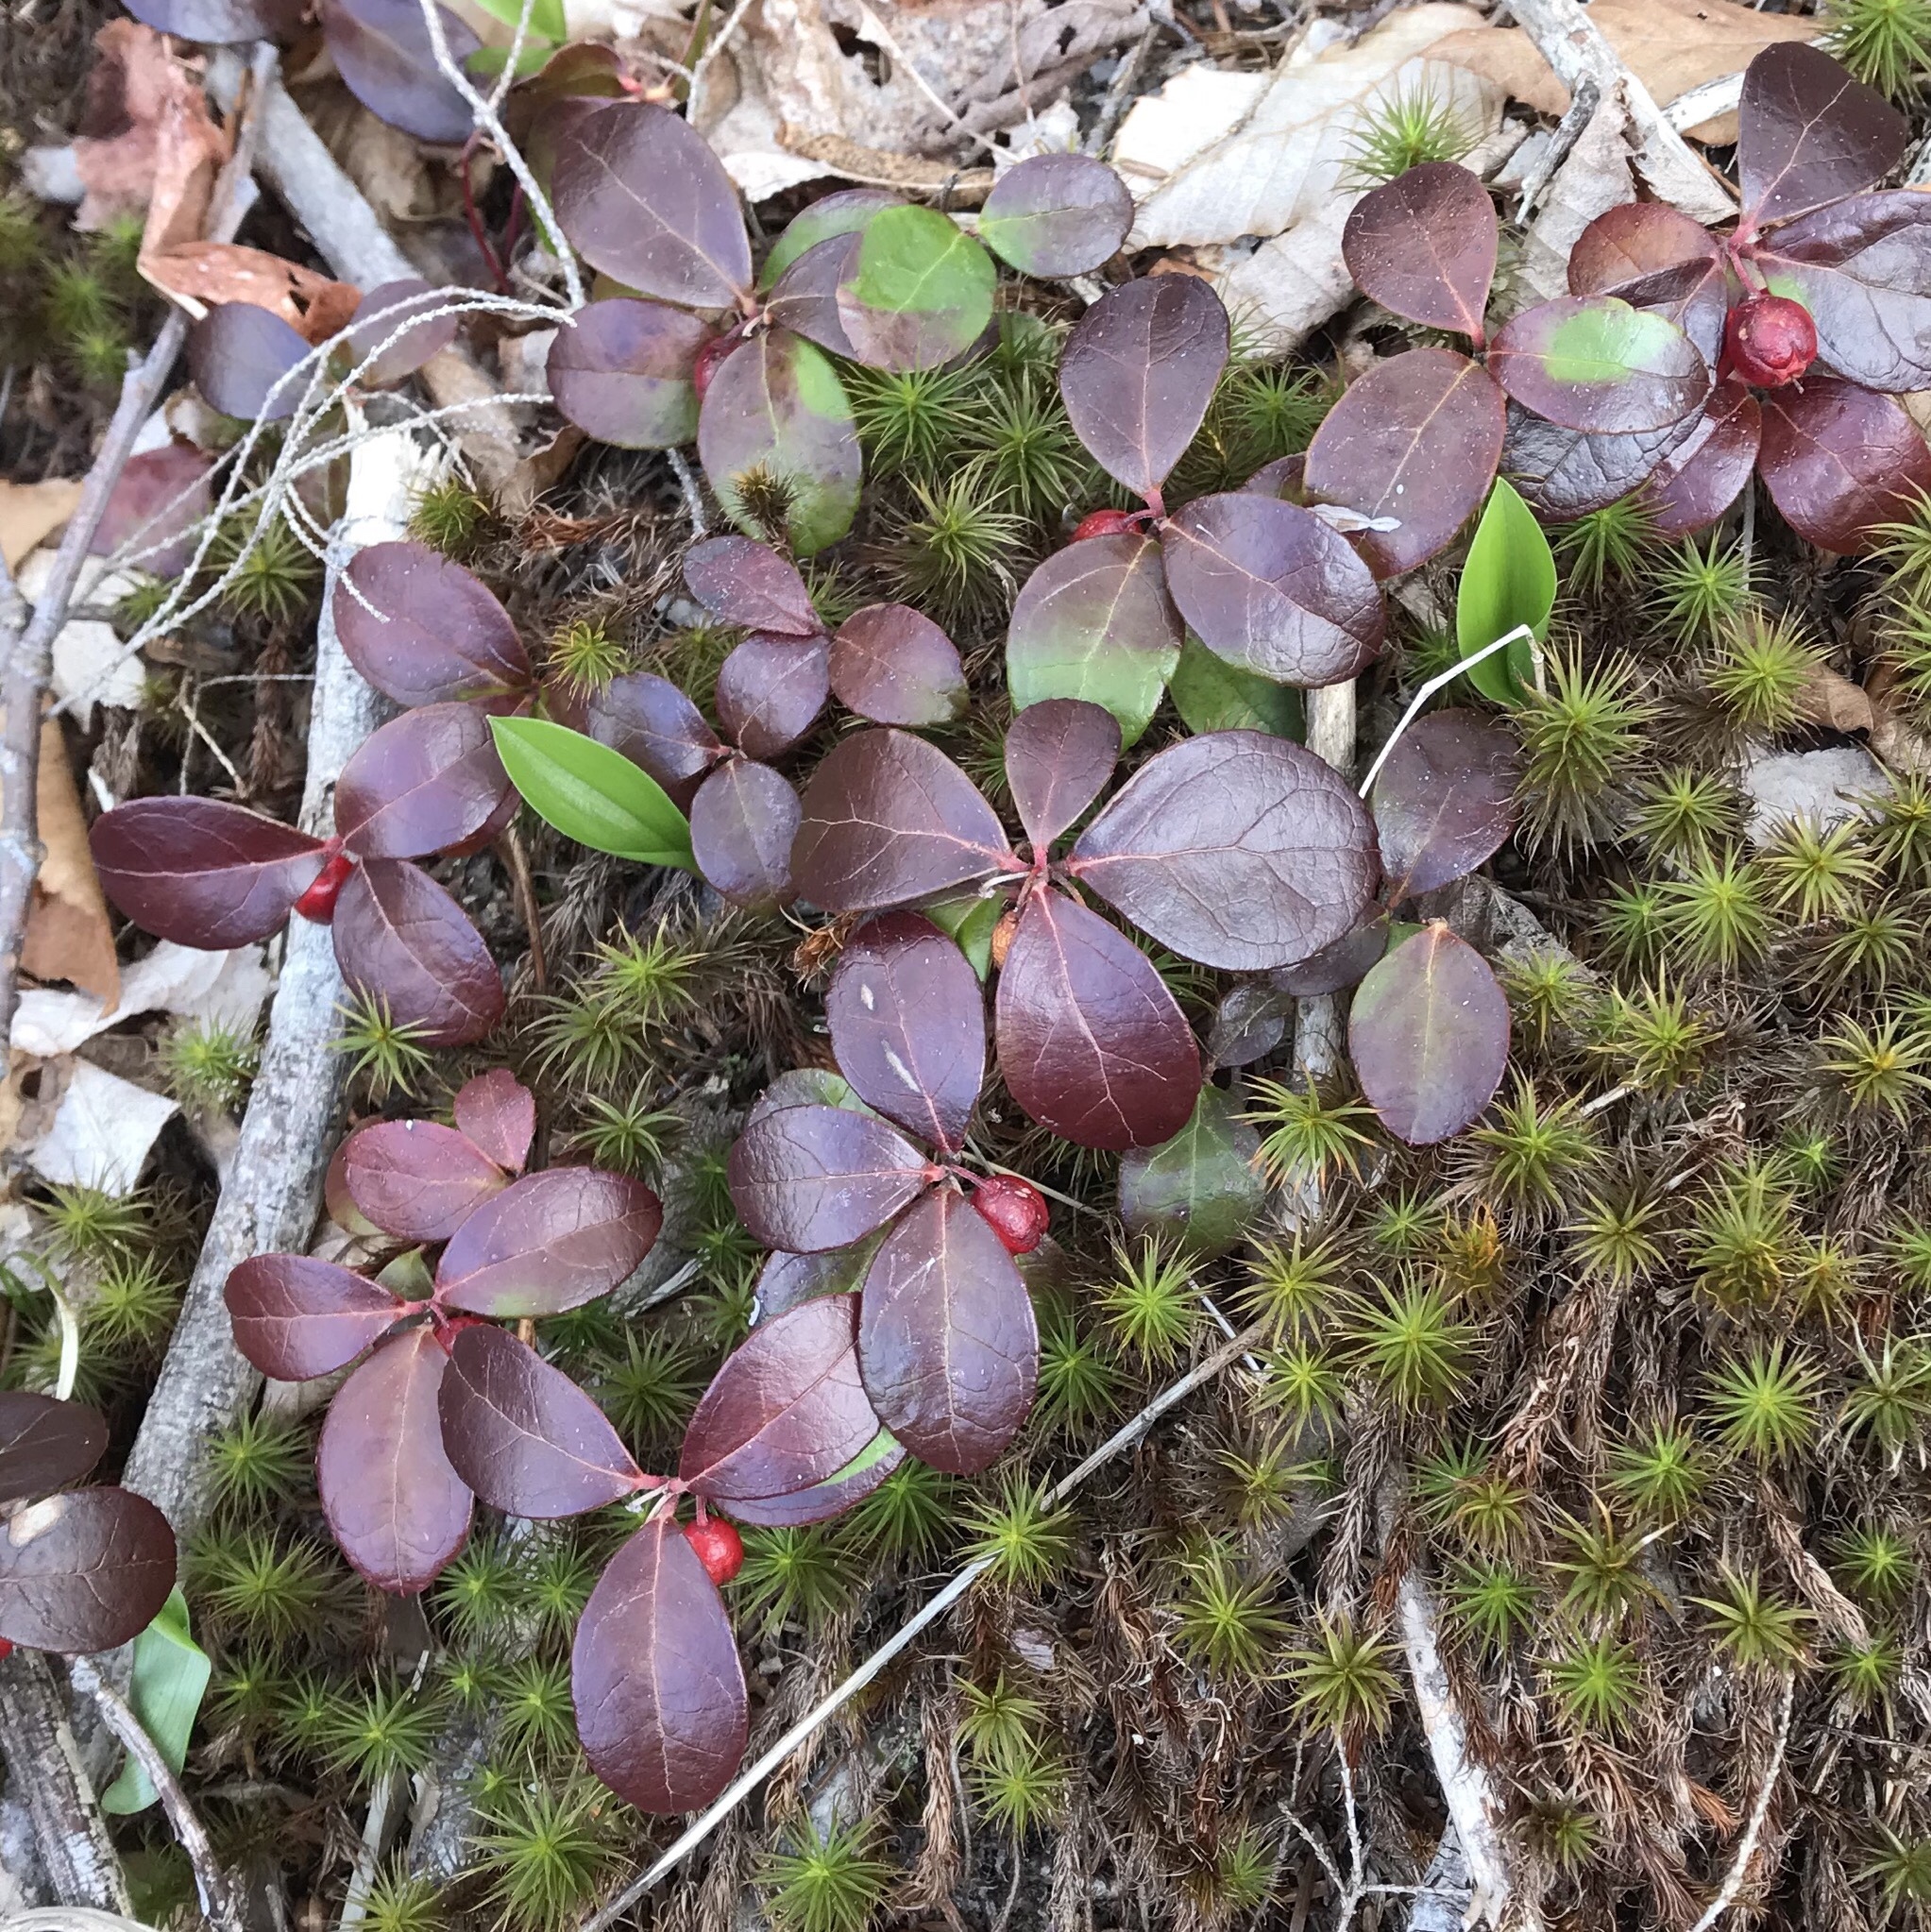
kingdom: Plantae
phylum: Tracheophyta
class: Magnoliopsida
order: Ericales
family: Ericaceae
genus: Gaultheria
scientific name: Gaultheria procumbens
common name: Checkerberry
